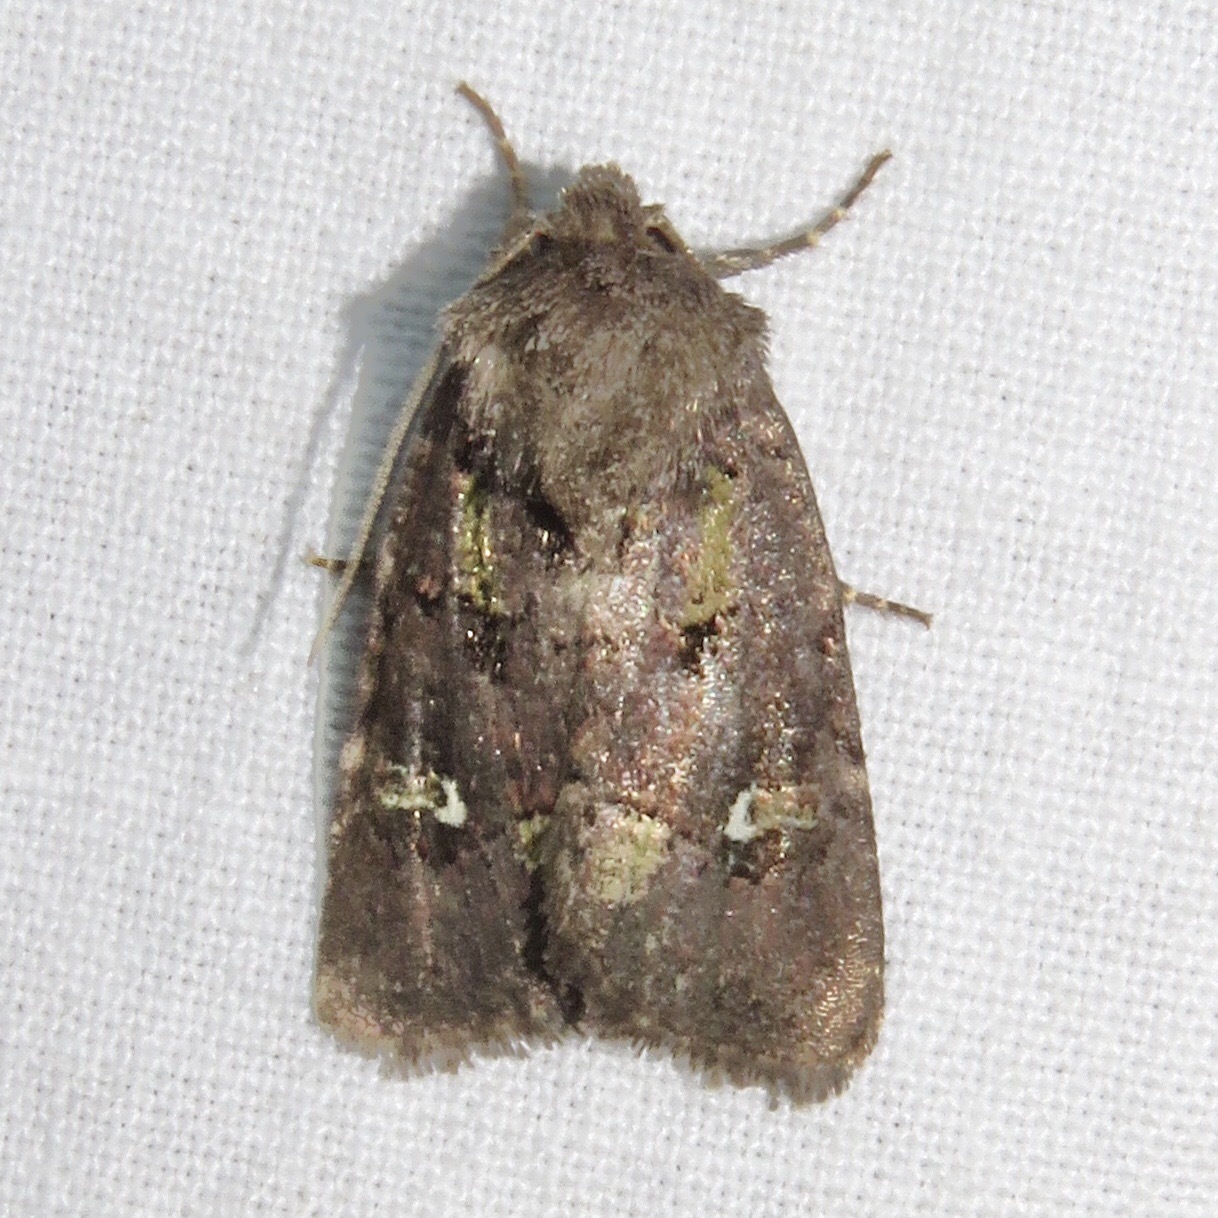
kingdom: Animalia
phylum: Arthropoda
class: Insecta
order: Lepidoptera
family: Noctuidae
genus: Lacinipolia
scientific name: Lacinipolia renigera
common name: Kidney-spotted minor
